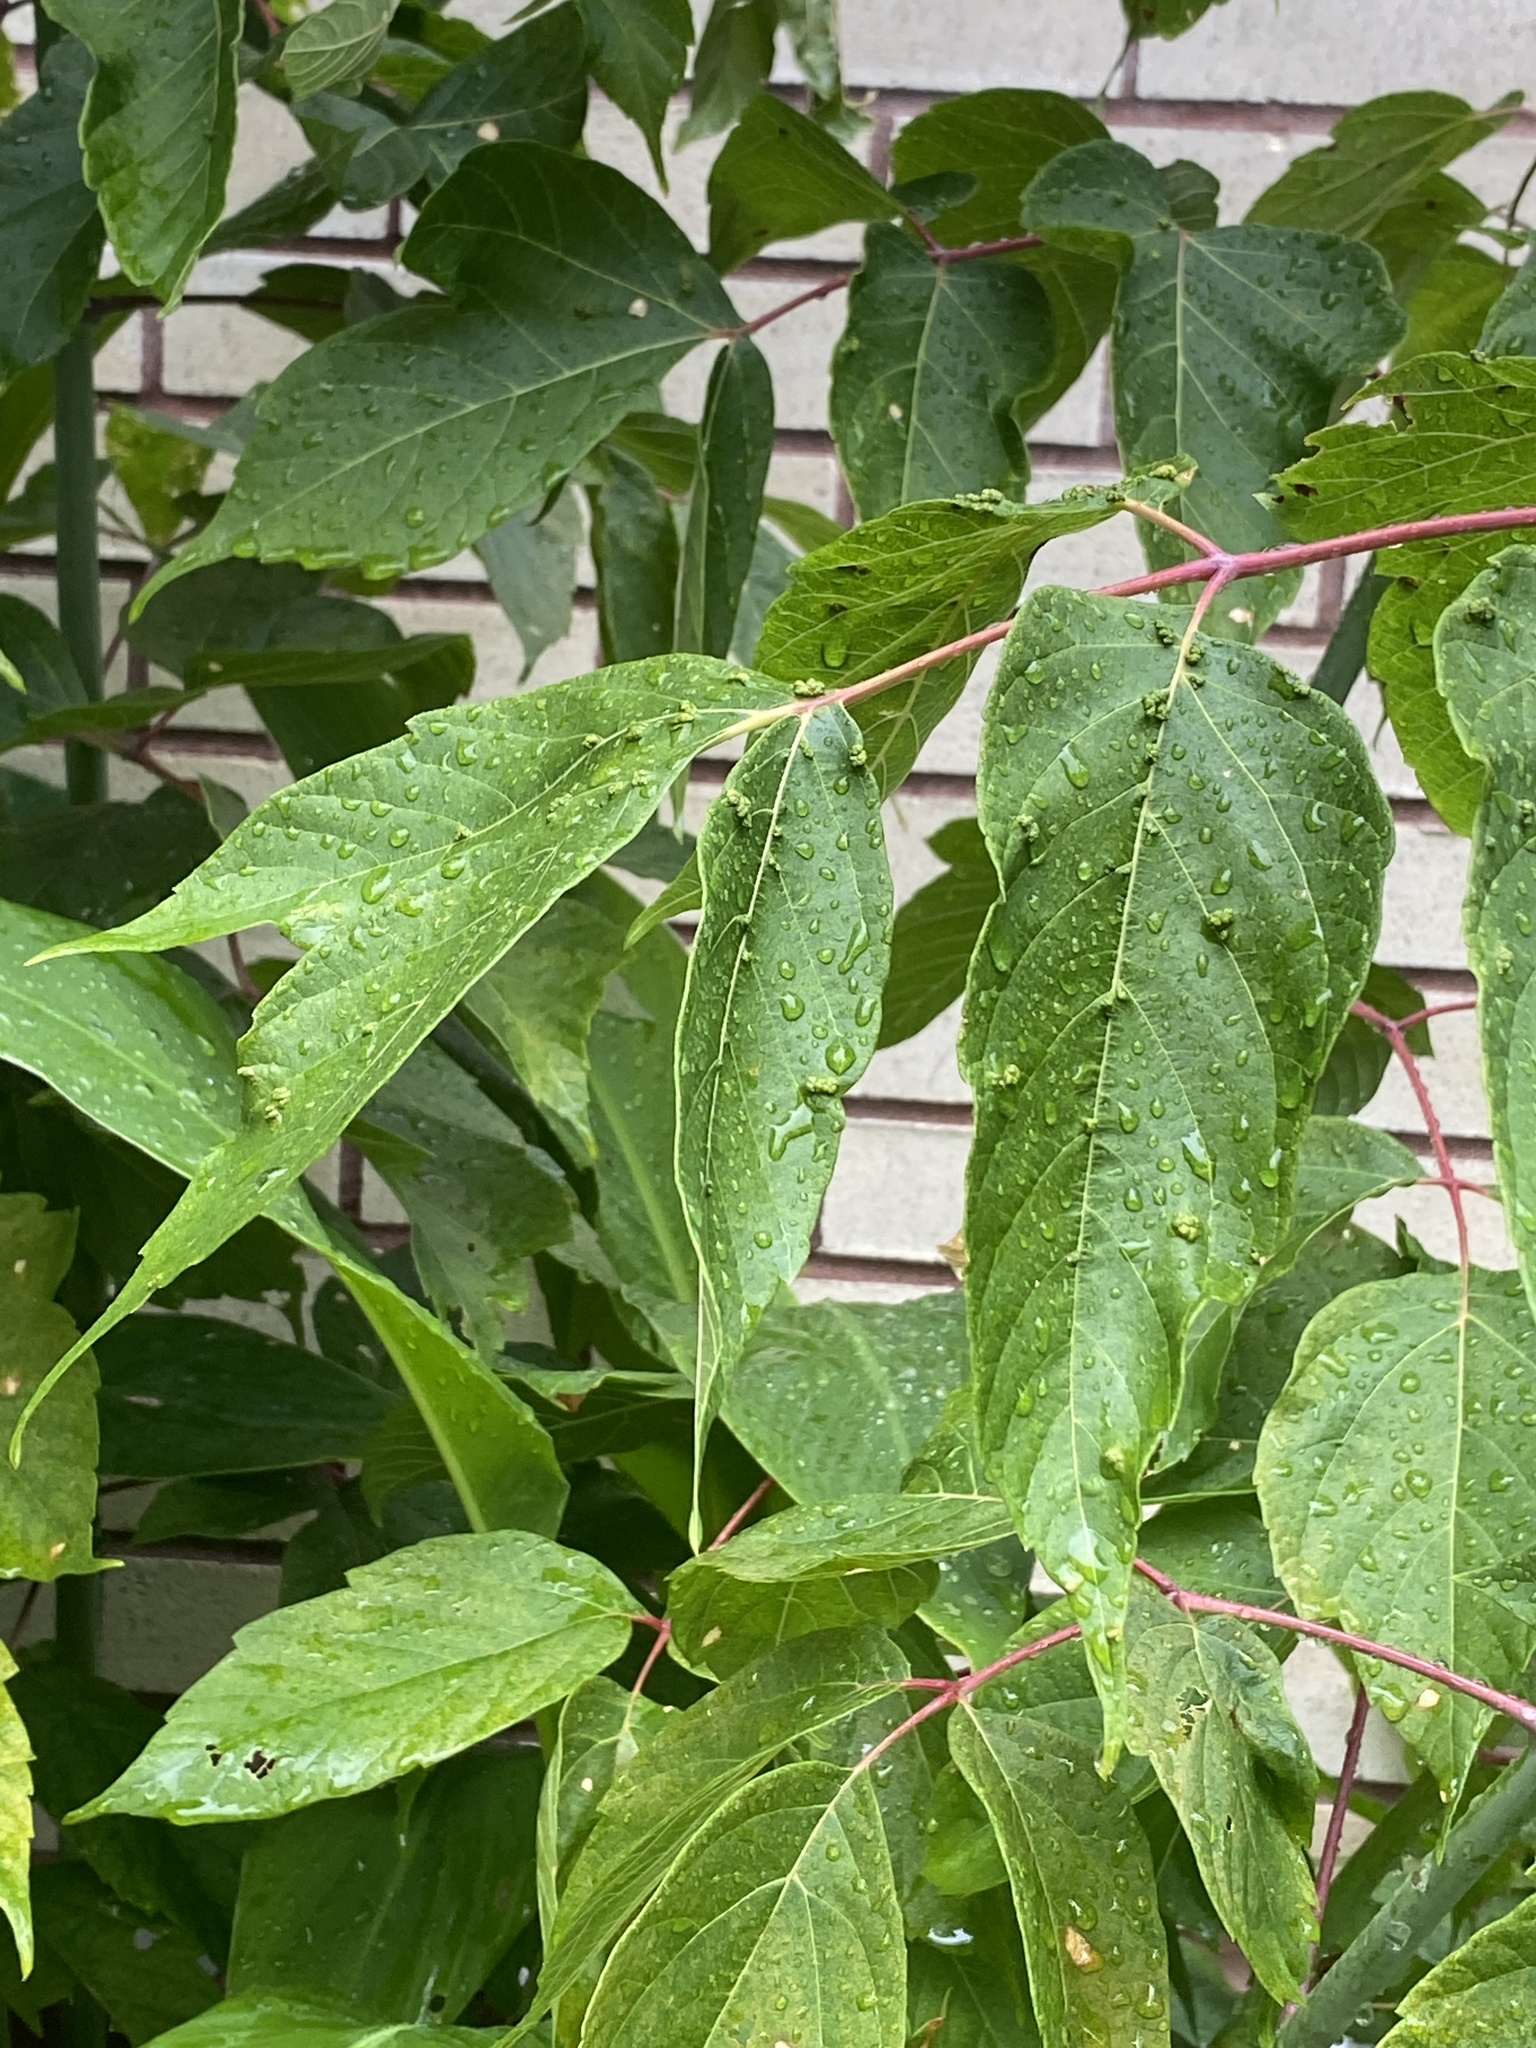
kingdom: Plantae
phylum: Tracheophyta
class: Magnoliopsida
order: Sapindales
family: Sapindaceae
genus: Acer
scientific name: Acer negundo
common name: Ashleaf maple
